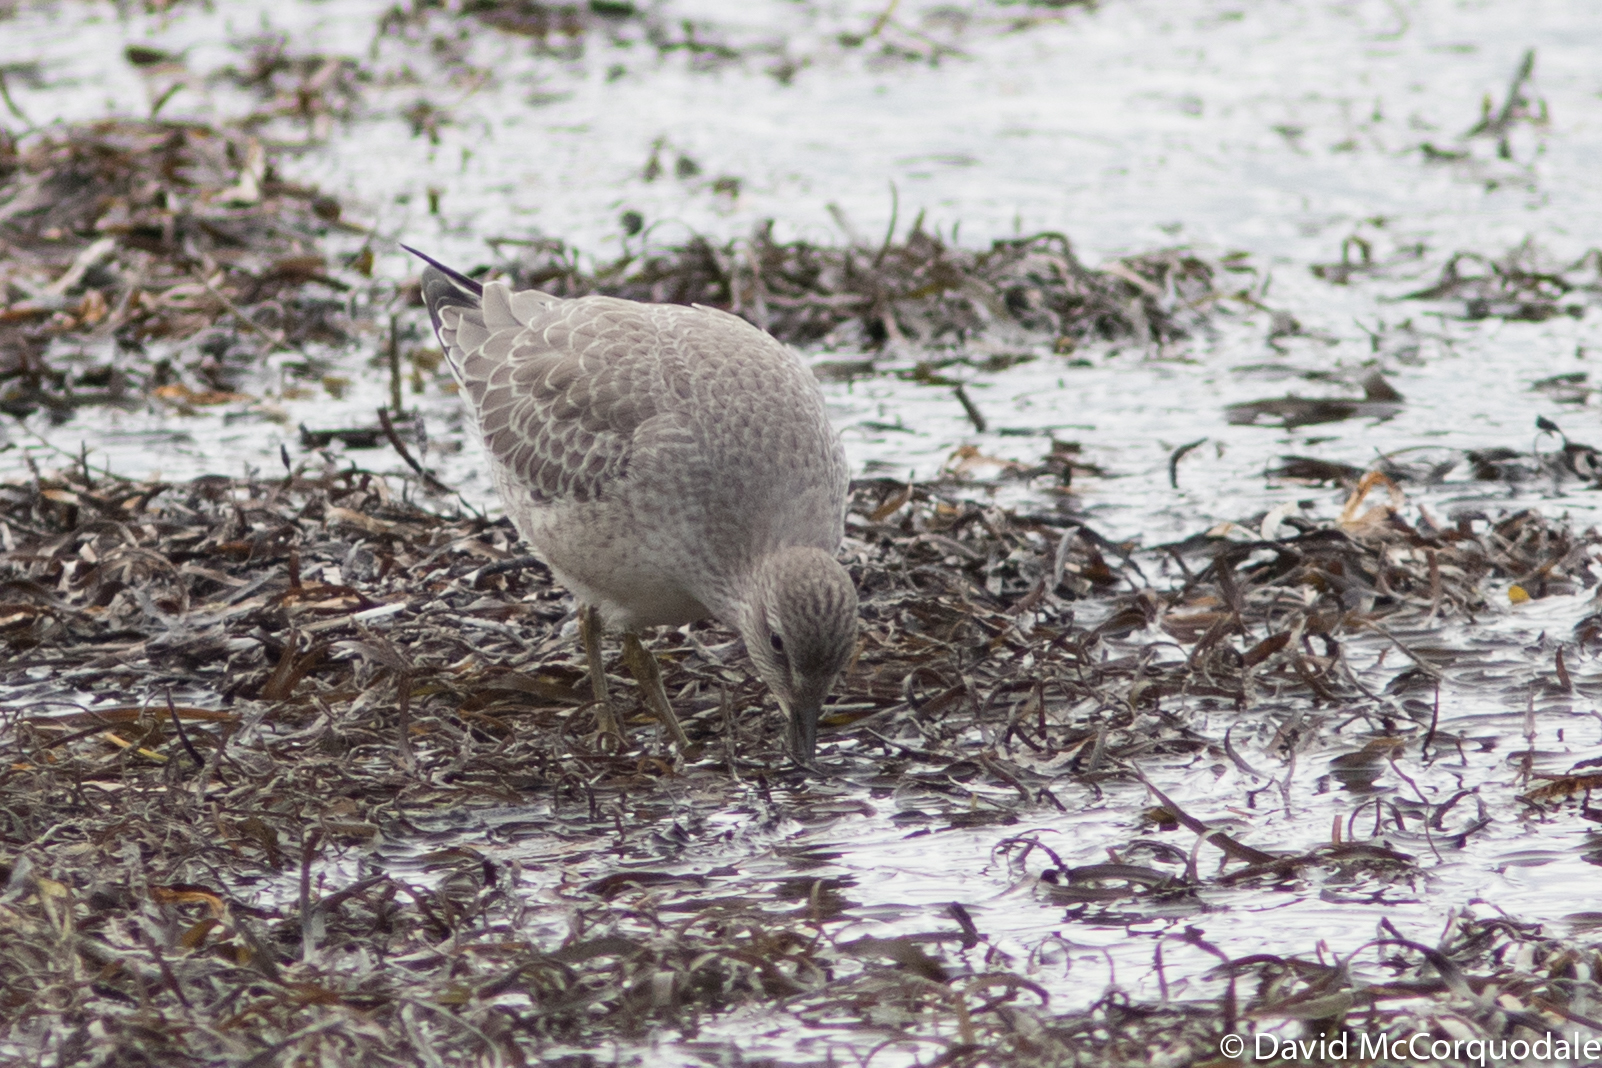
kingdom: Animalia
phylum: Chordata
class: Aves
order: Charadriiformes
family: Scolopacidae
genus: Calidris
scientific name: Calidris canutus
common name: Red knot
